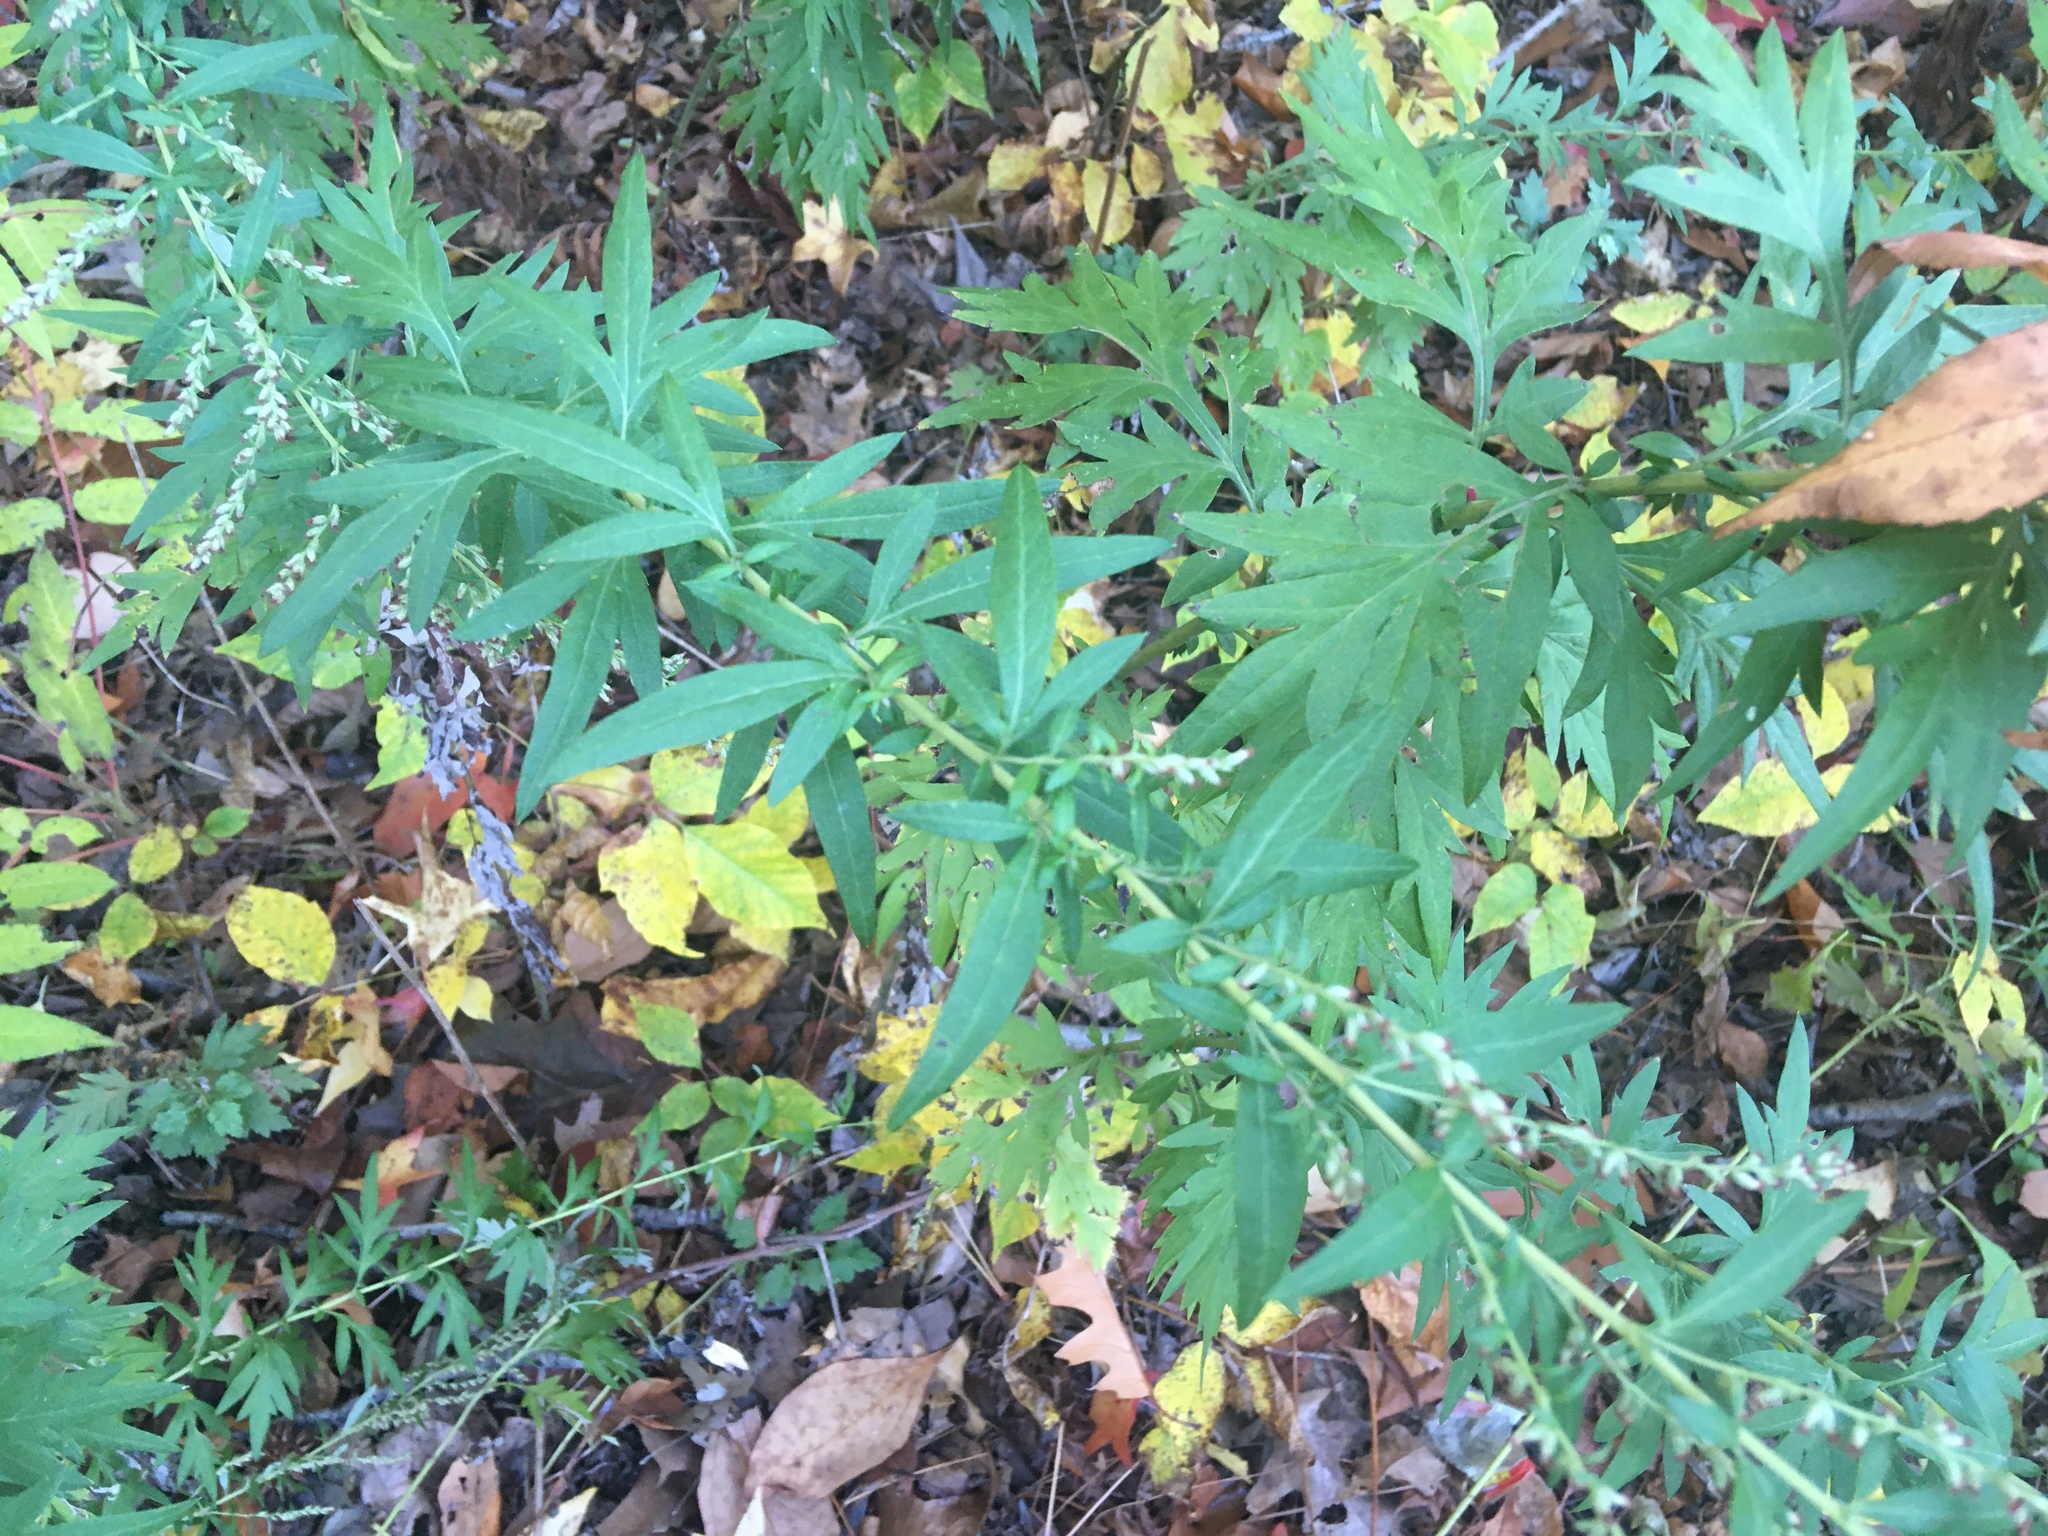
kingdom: Plantae
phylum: Tracheophyta
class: Magnoliopsida
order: Asterales
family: Asteraceae
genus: Artemisia
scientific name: Artemisia vulgaris
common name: Mugwort
